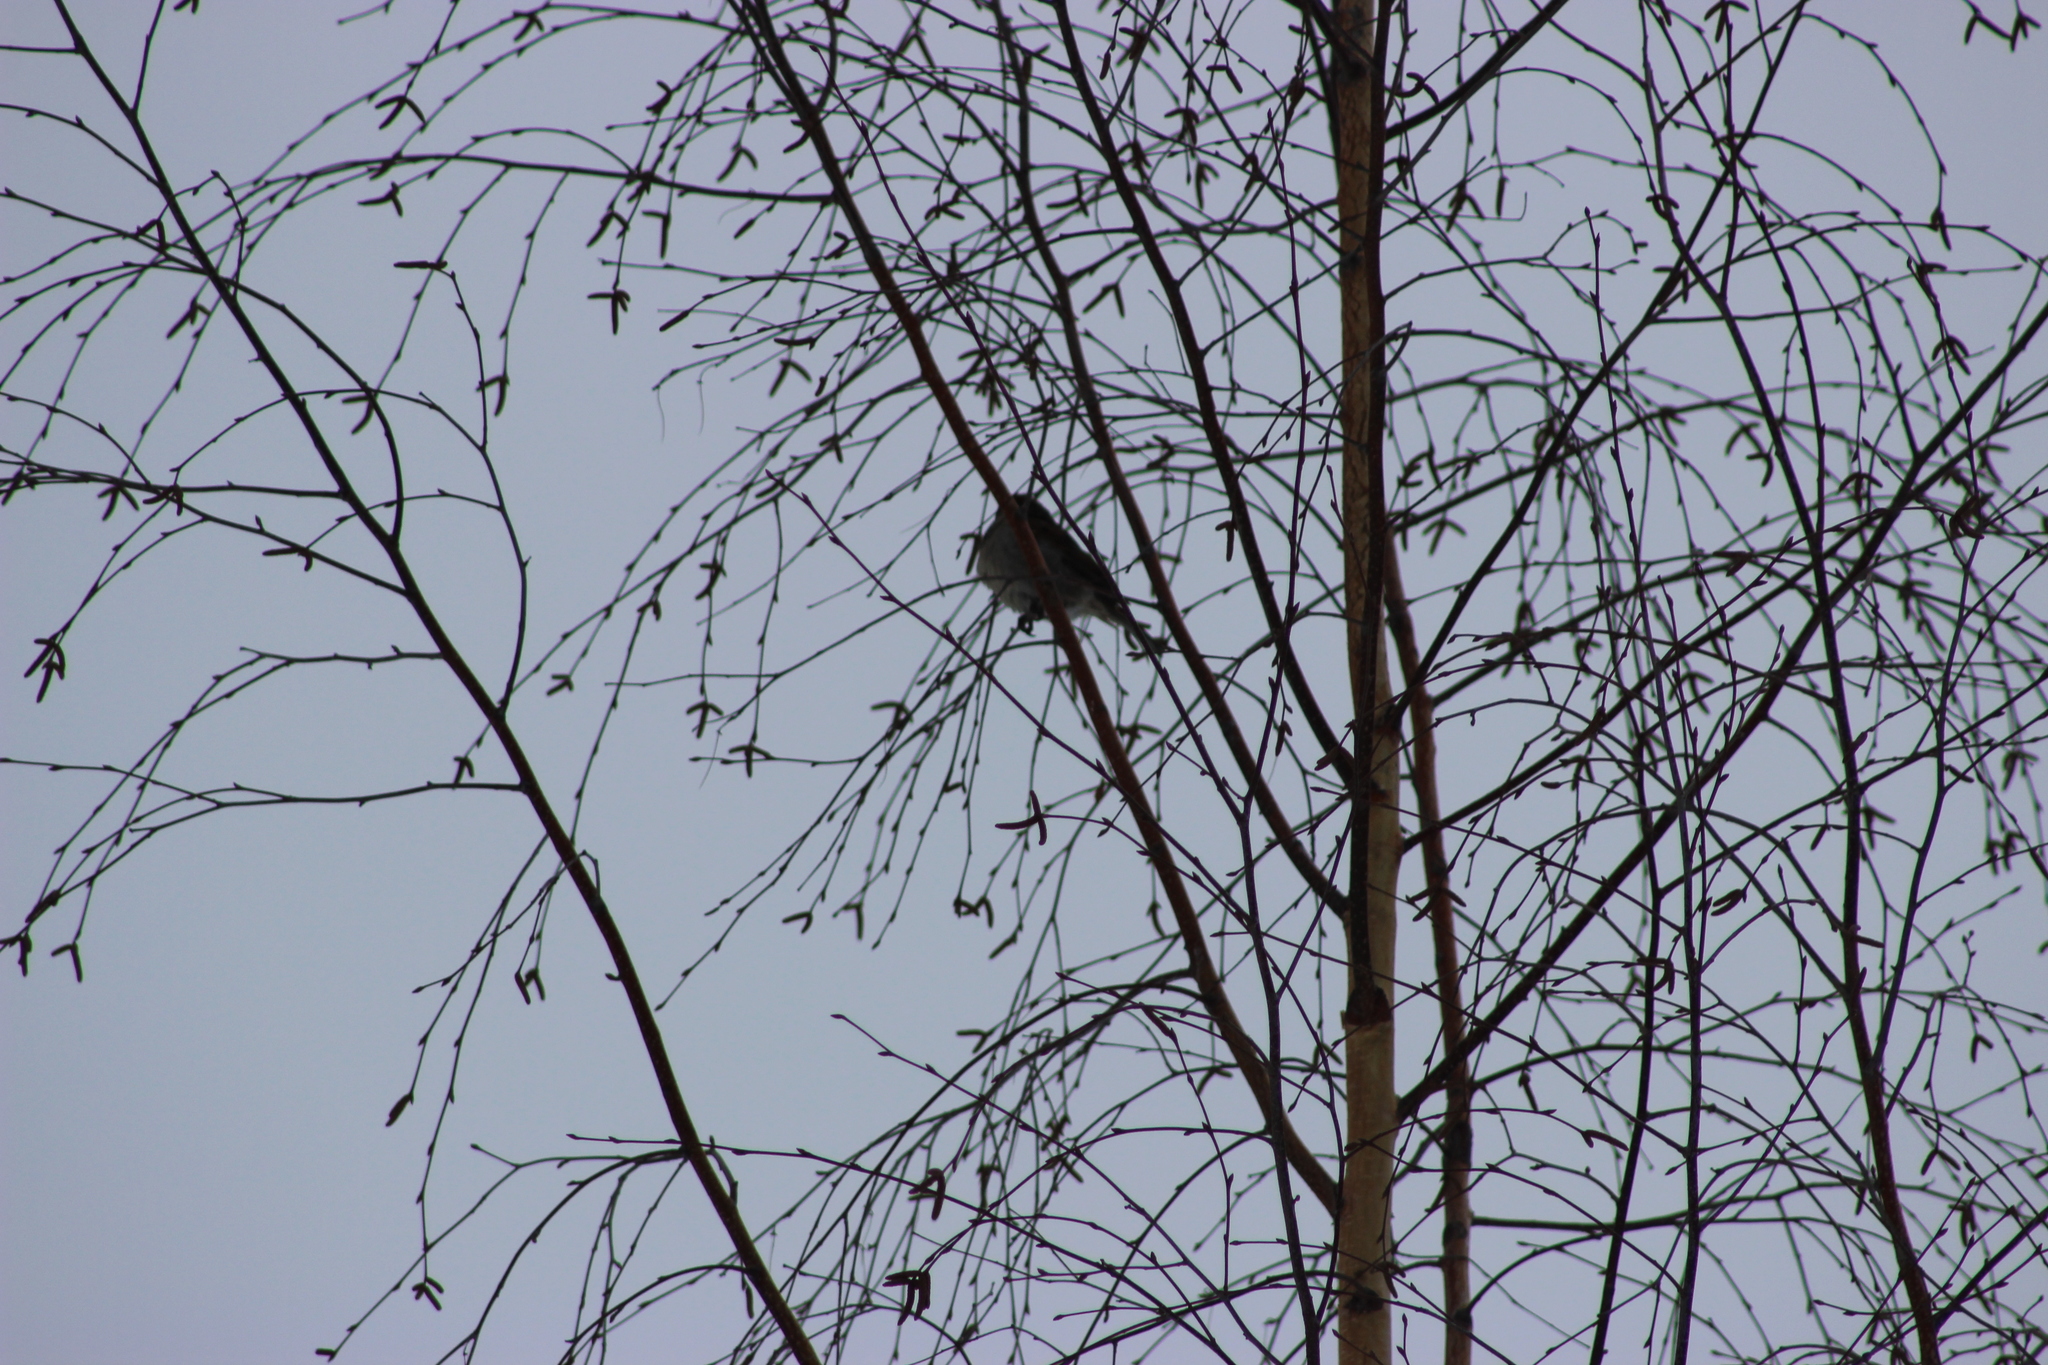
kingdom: Animalia
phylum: Chordata
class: Aves
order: Passeriformes
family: Passeridae
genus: Passer
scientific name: Passer domesticus
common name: House sparrow
